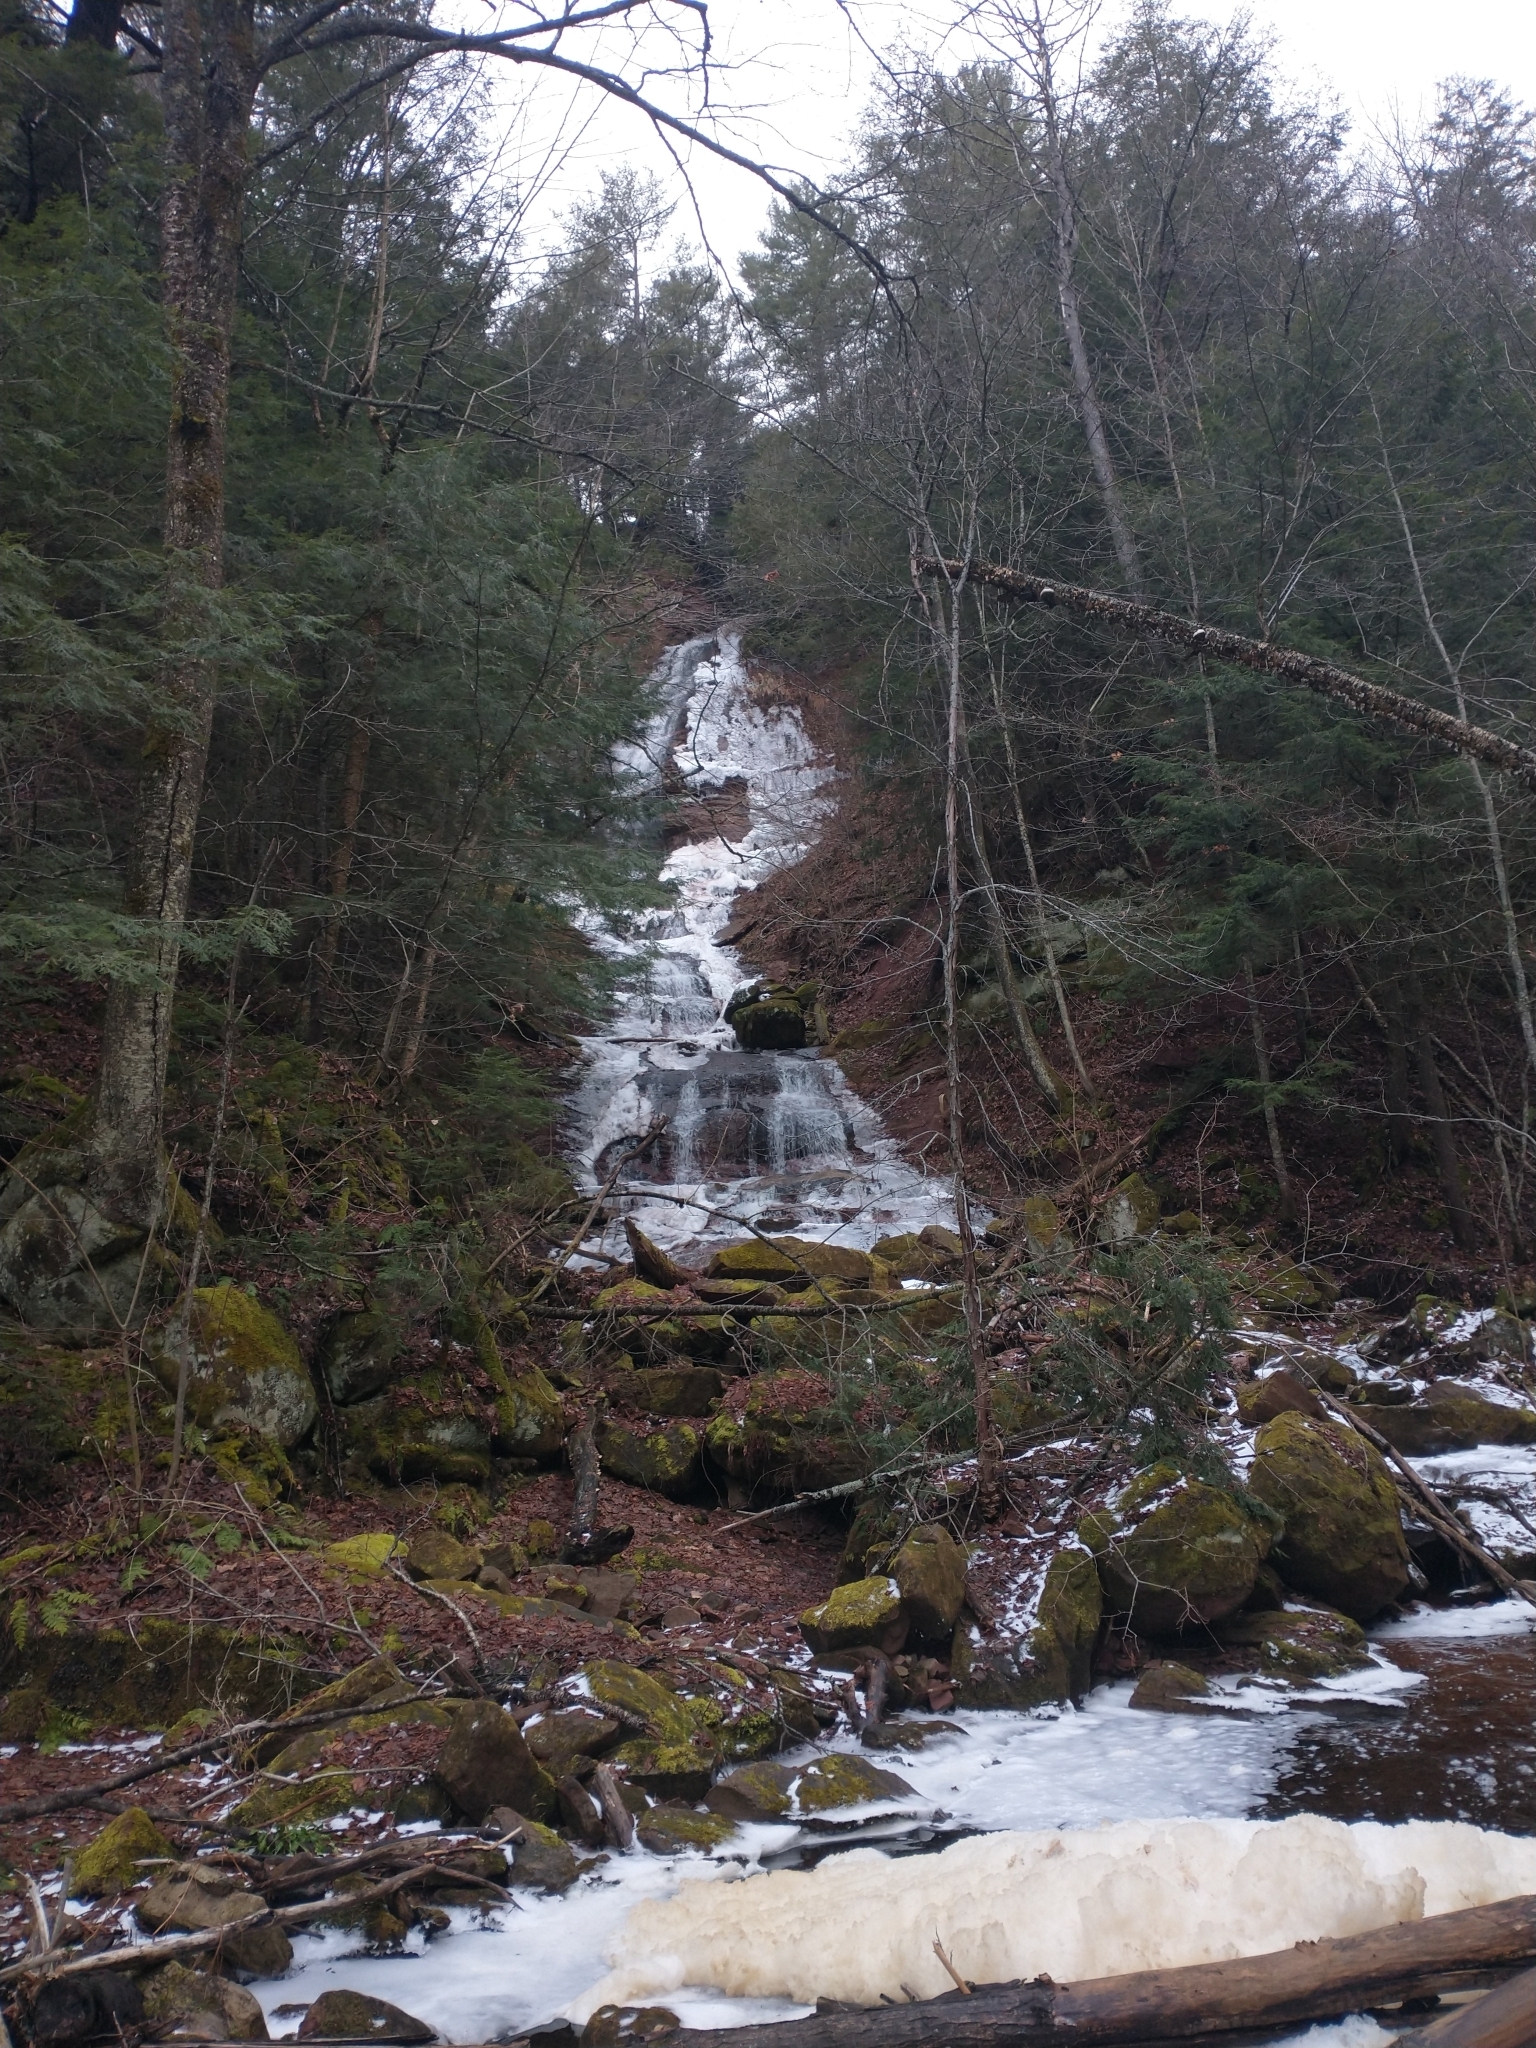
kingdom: Plantae
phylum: Tracheophyta
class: Magnoliopsida
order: Fagales
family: Betulaceae
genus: Betula
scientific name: Betula alleghaniensis
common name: Yellow birch
